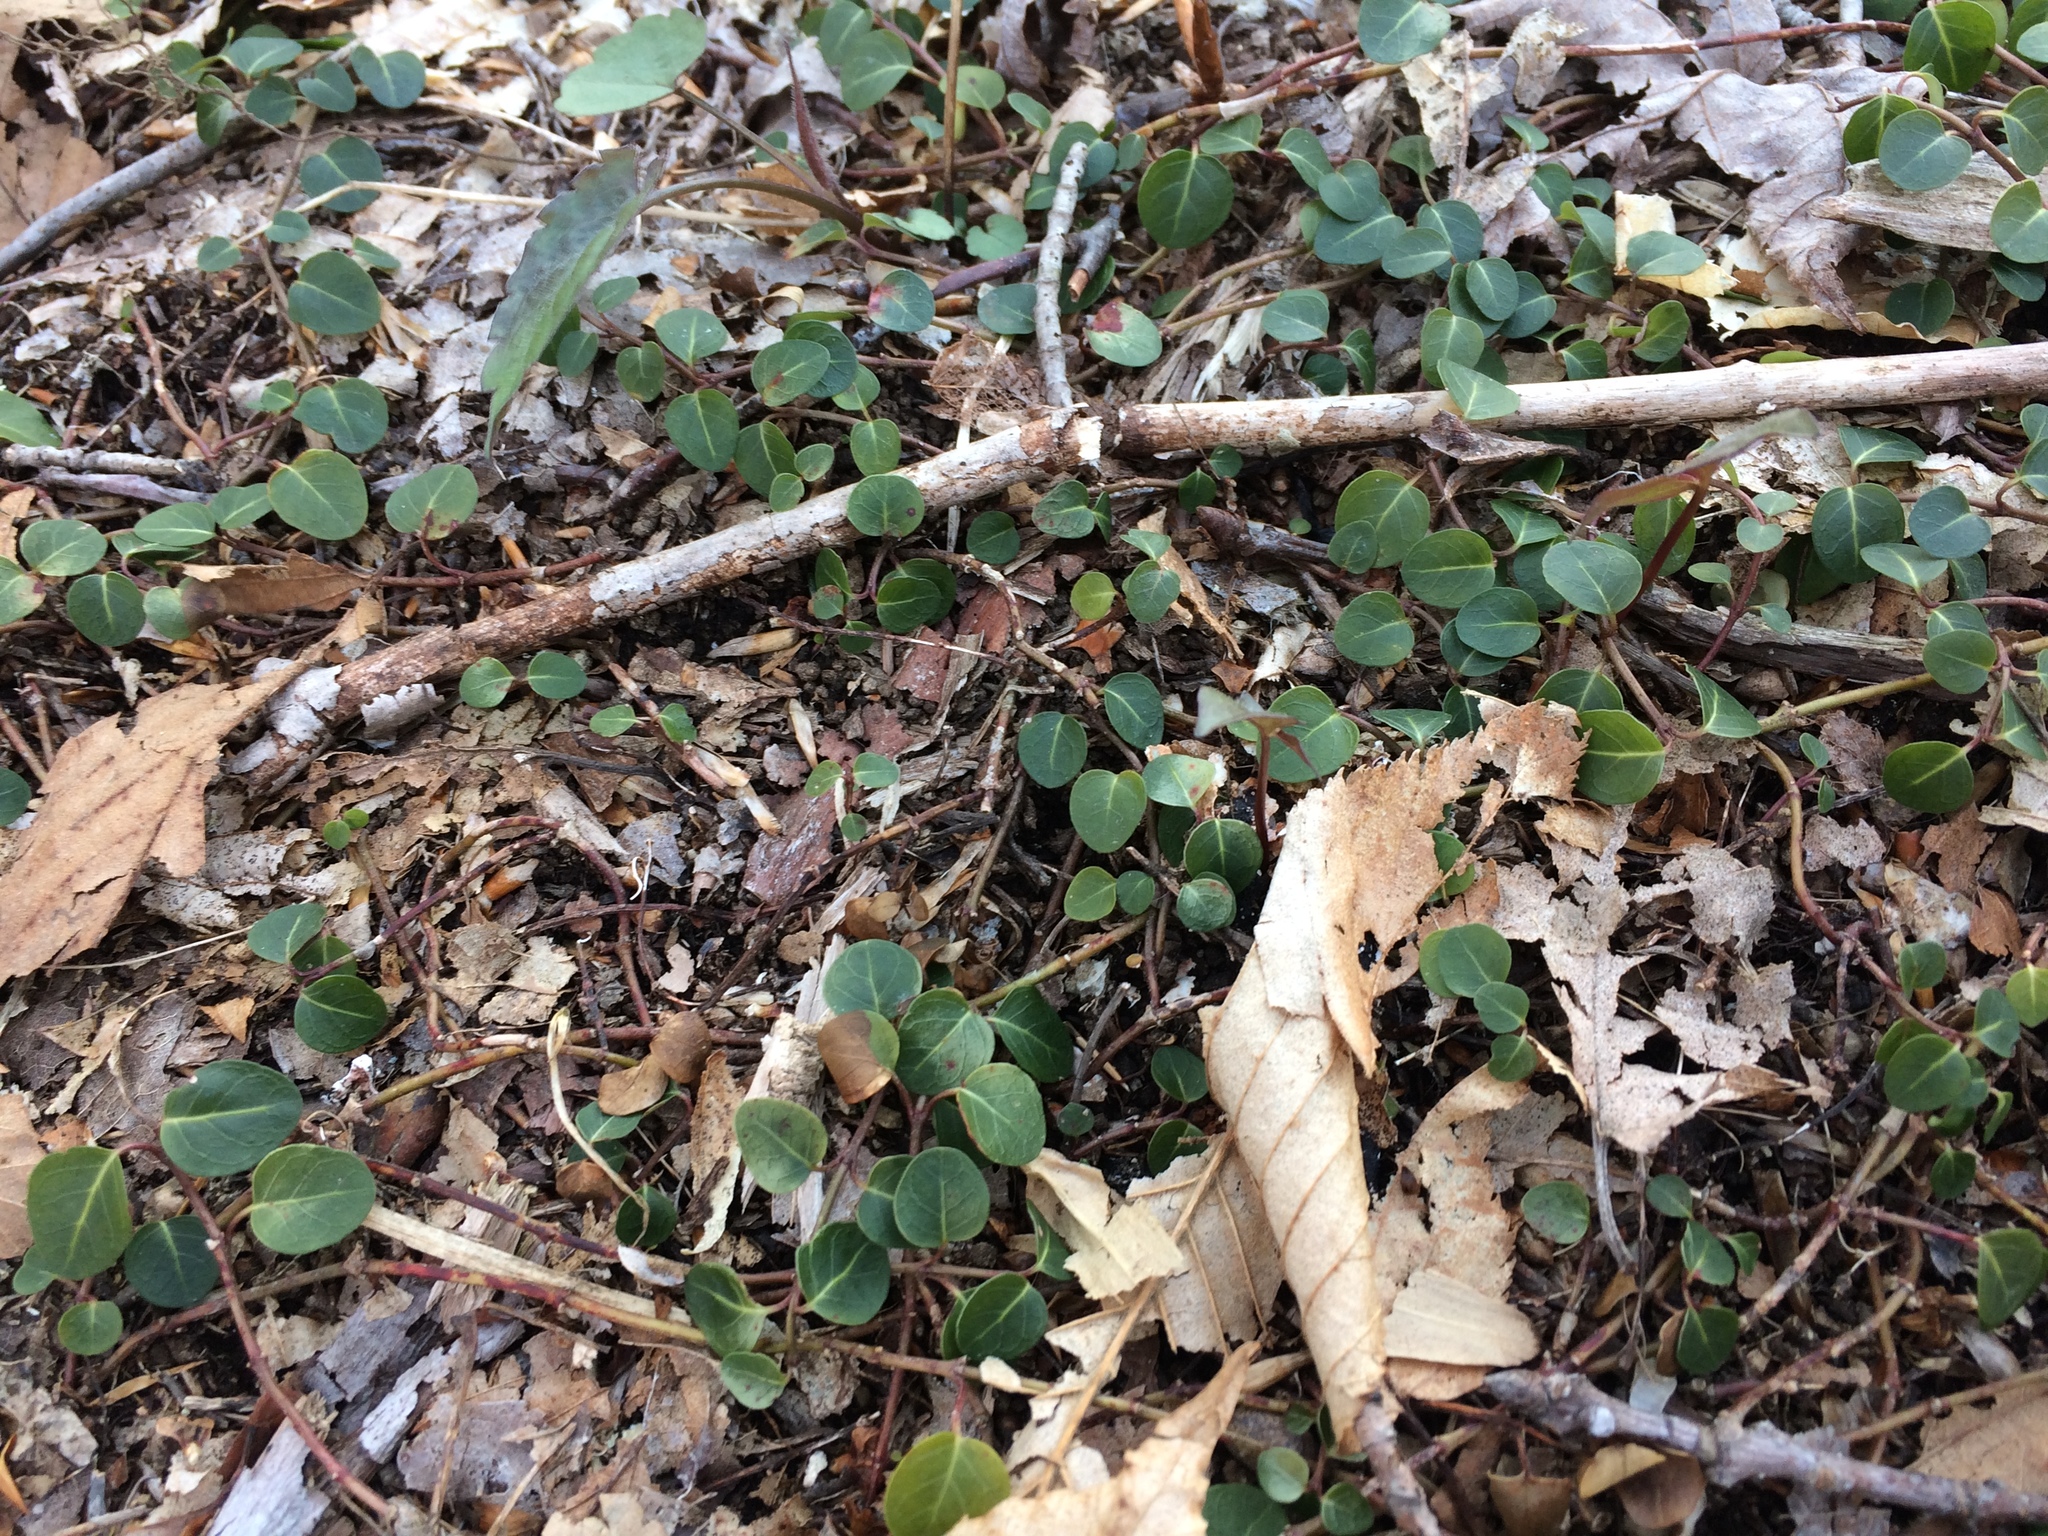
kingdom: Plantae
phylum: Tracheophyta
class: Magnoliopsida
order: Gentianales
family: Rubiaceae
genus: Mitchella
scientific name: Mitchella repens
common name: Partridge-berry
